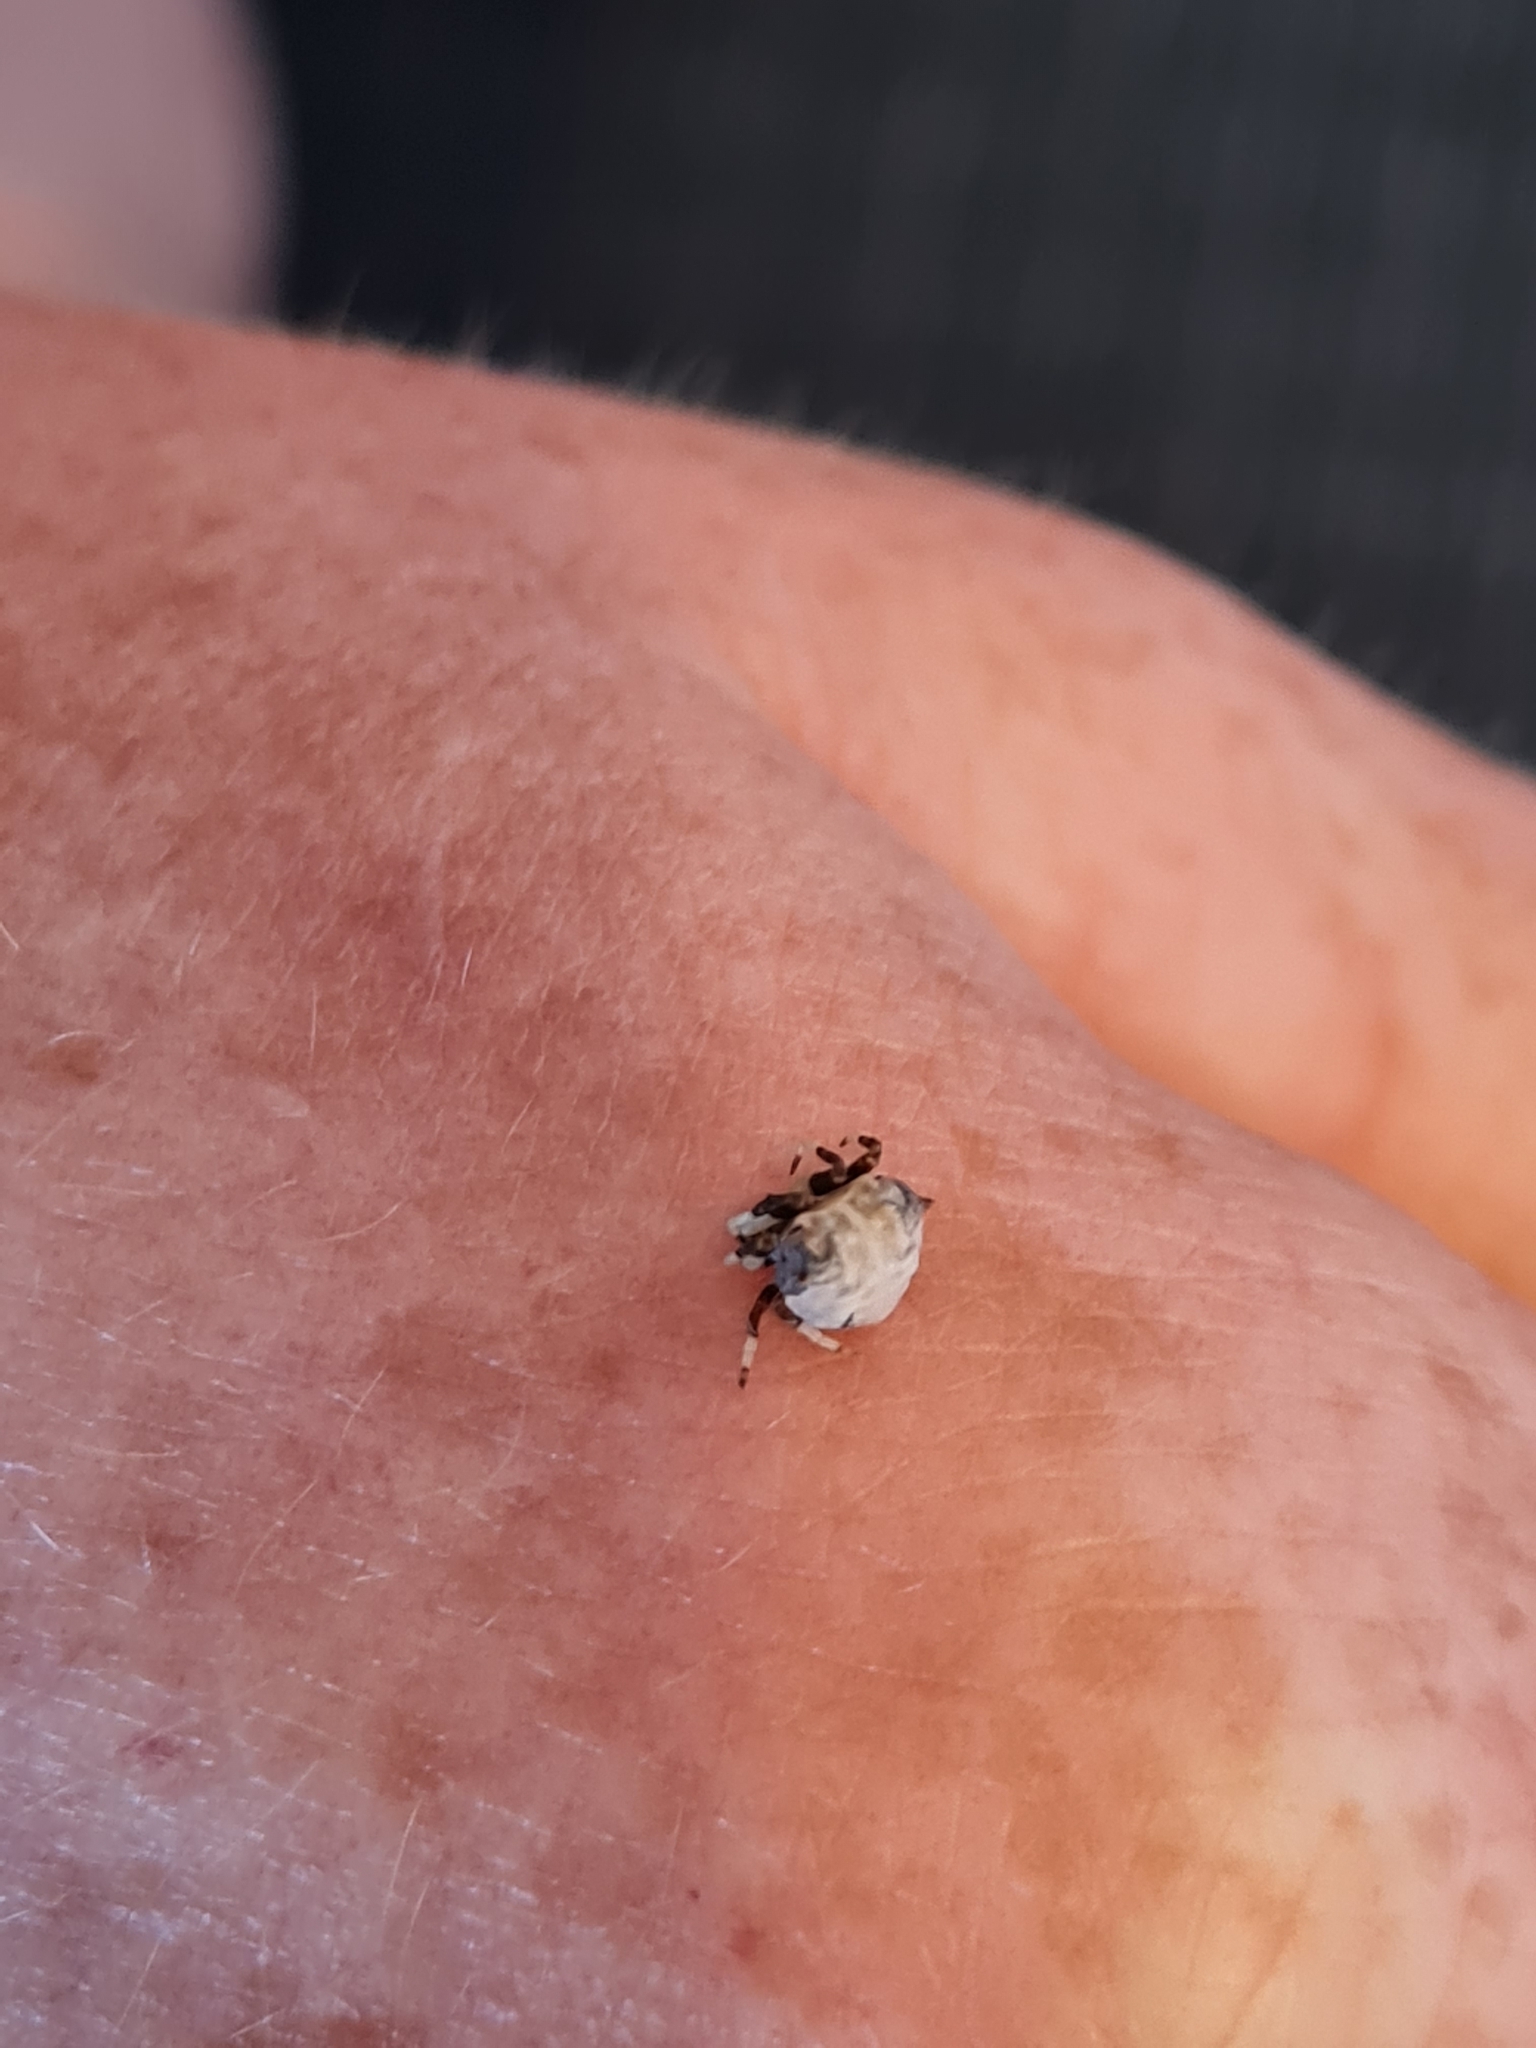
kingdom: Animalia
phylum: Arthropoda
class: Arachnida
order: Araneae
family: Araneidae
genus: Celaenia
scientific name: Celaenia excavata
